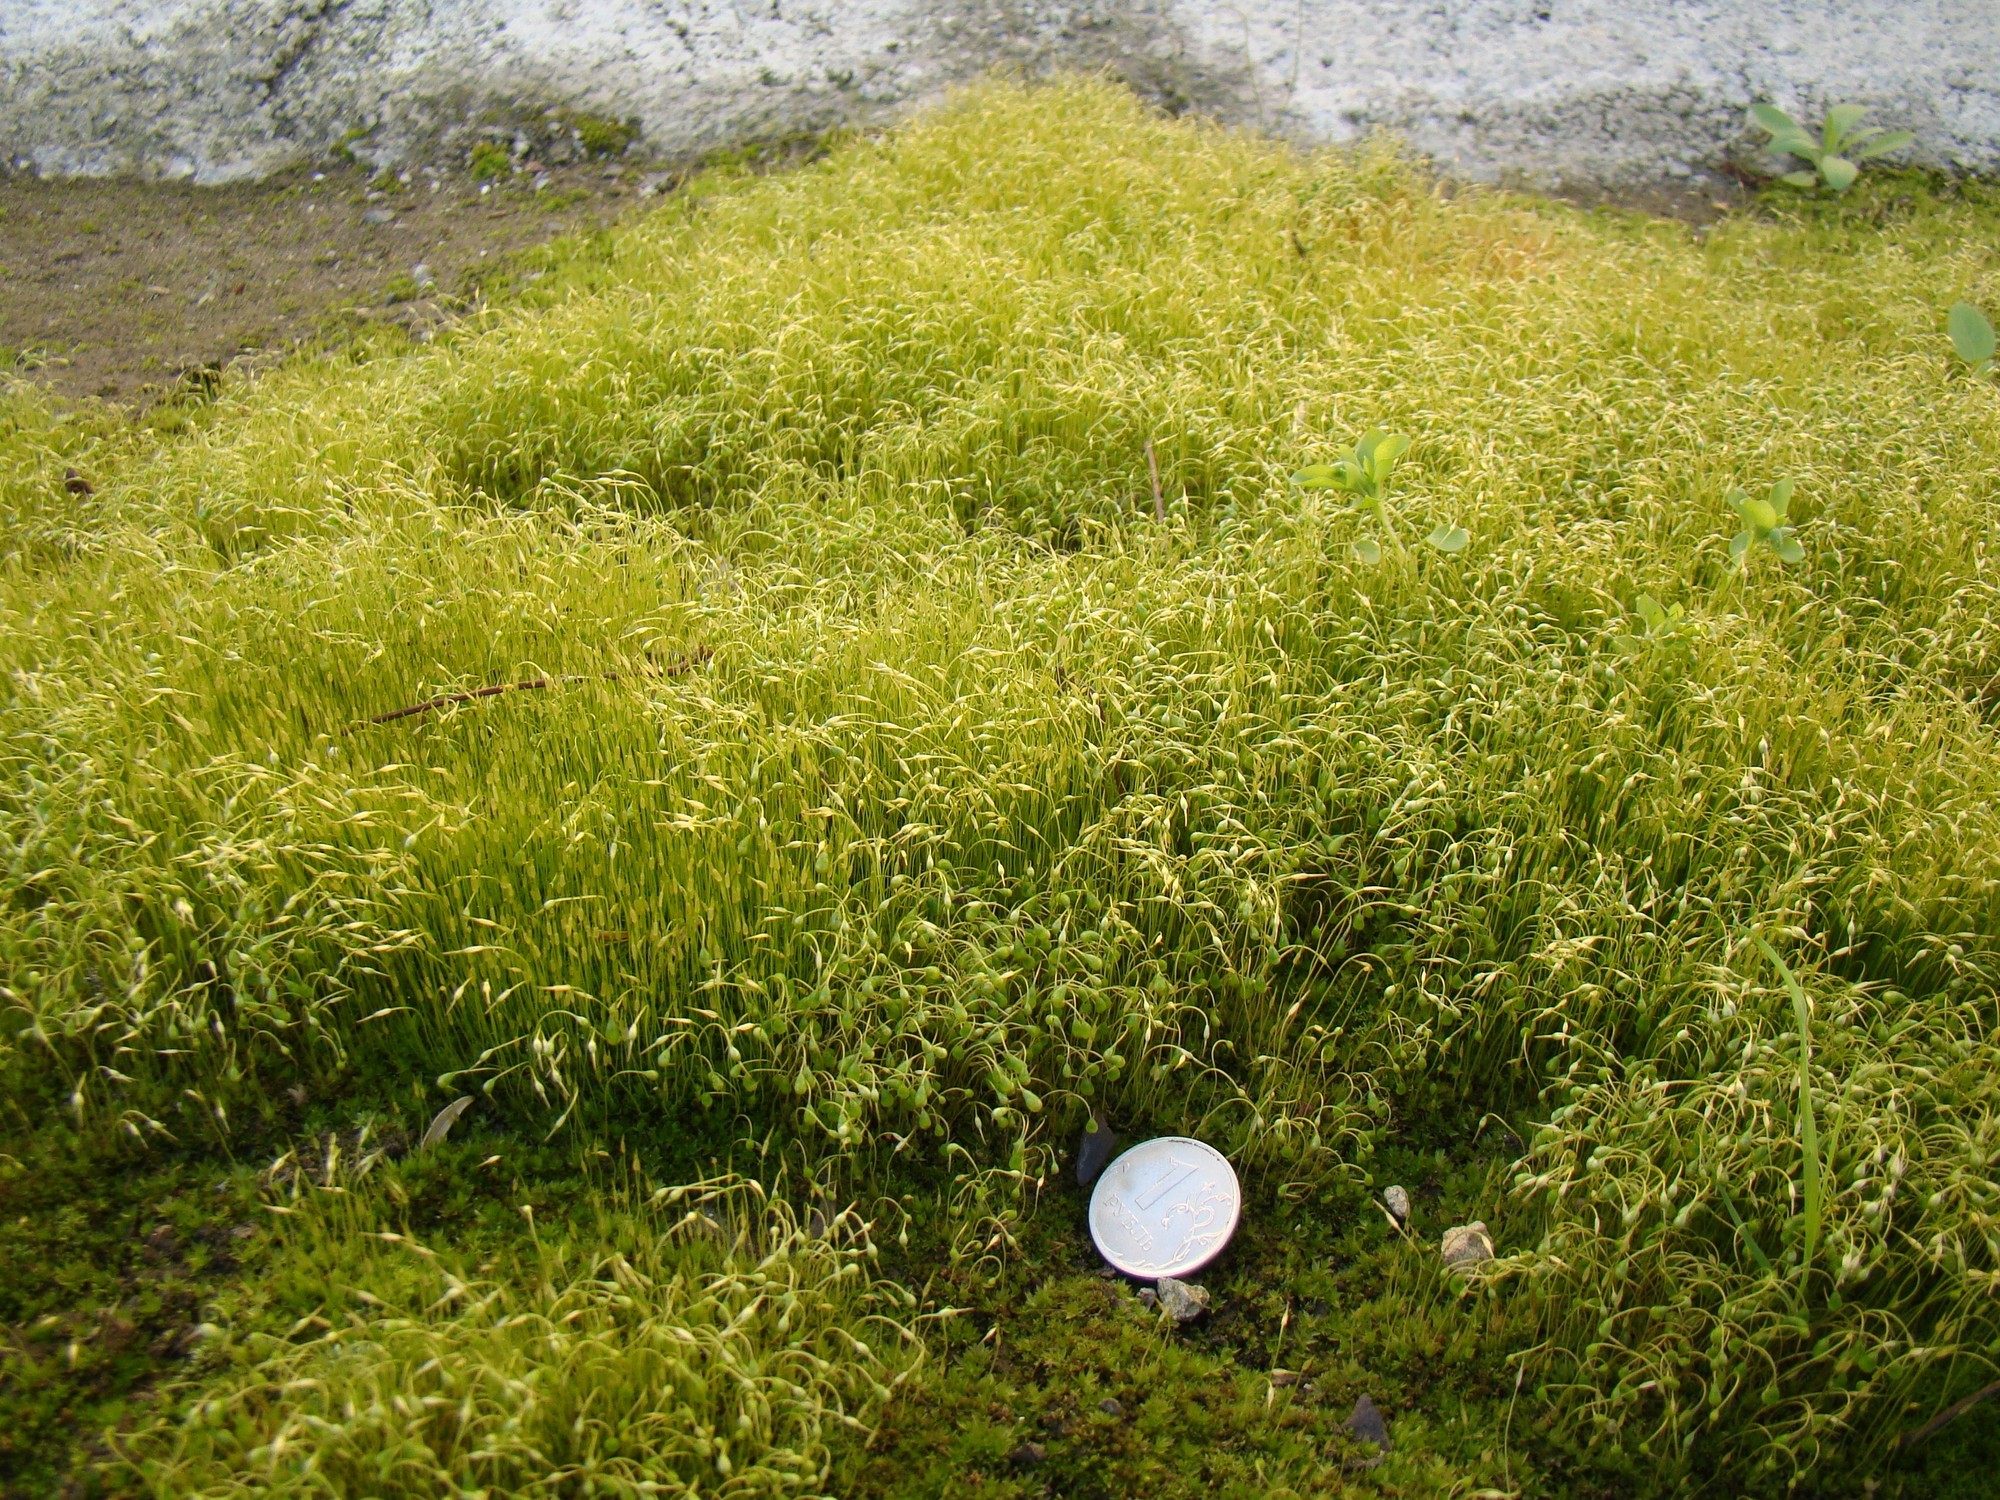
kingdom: Plantae
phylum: Bryophyta
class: Bryopsida
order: Funariales
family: Funariaceae
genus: Funaria
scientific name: Funaria hygrometrica
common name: Common cord moss
